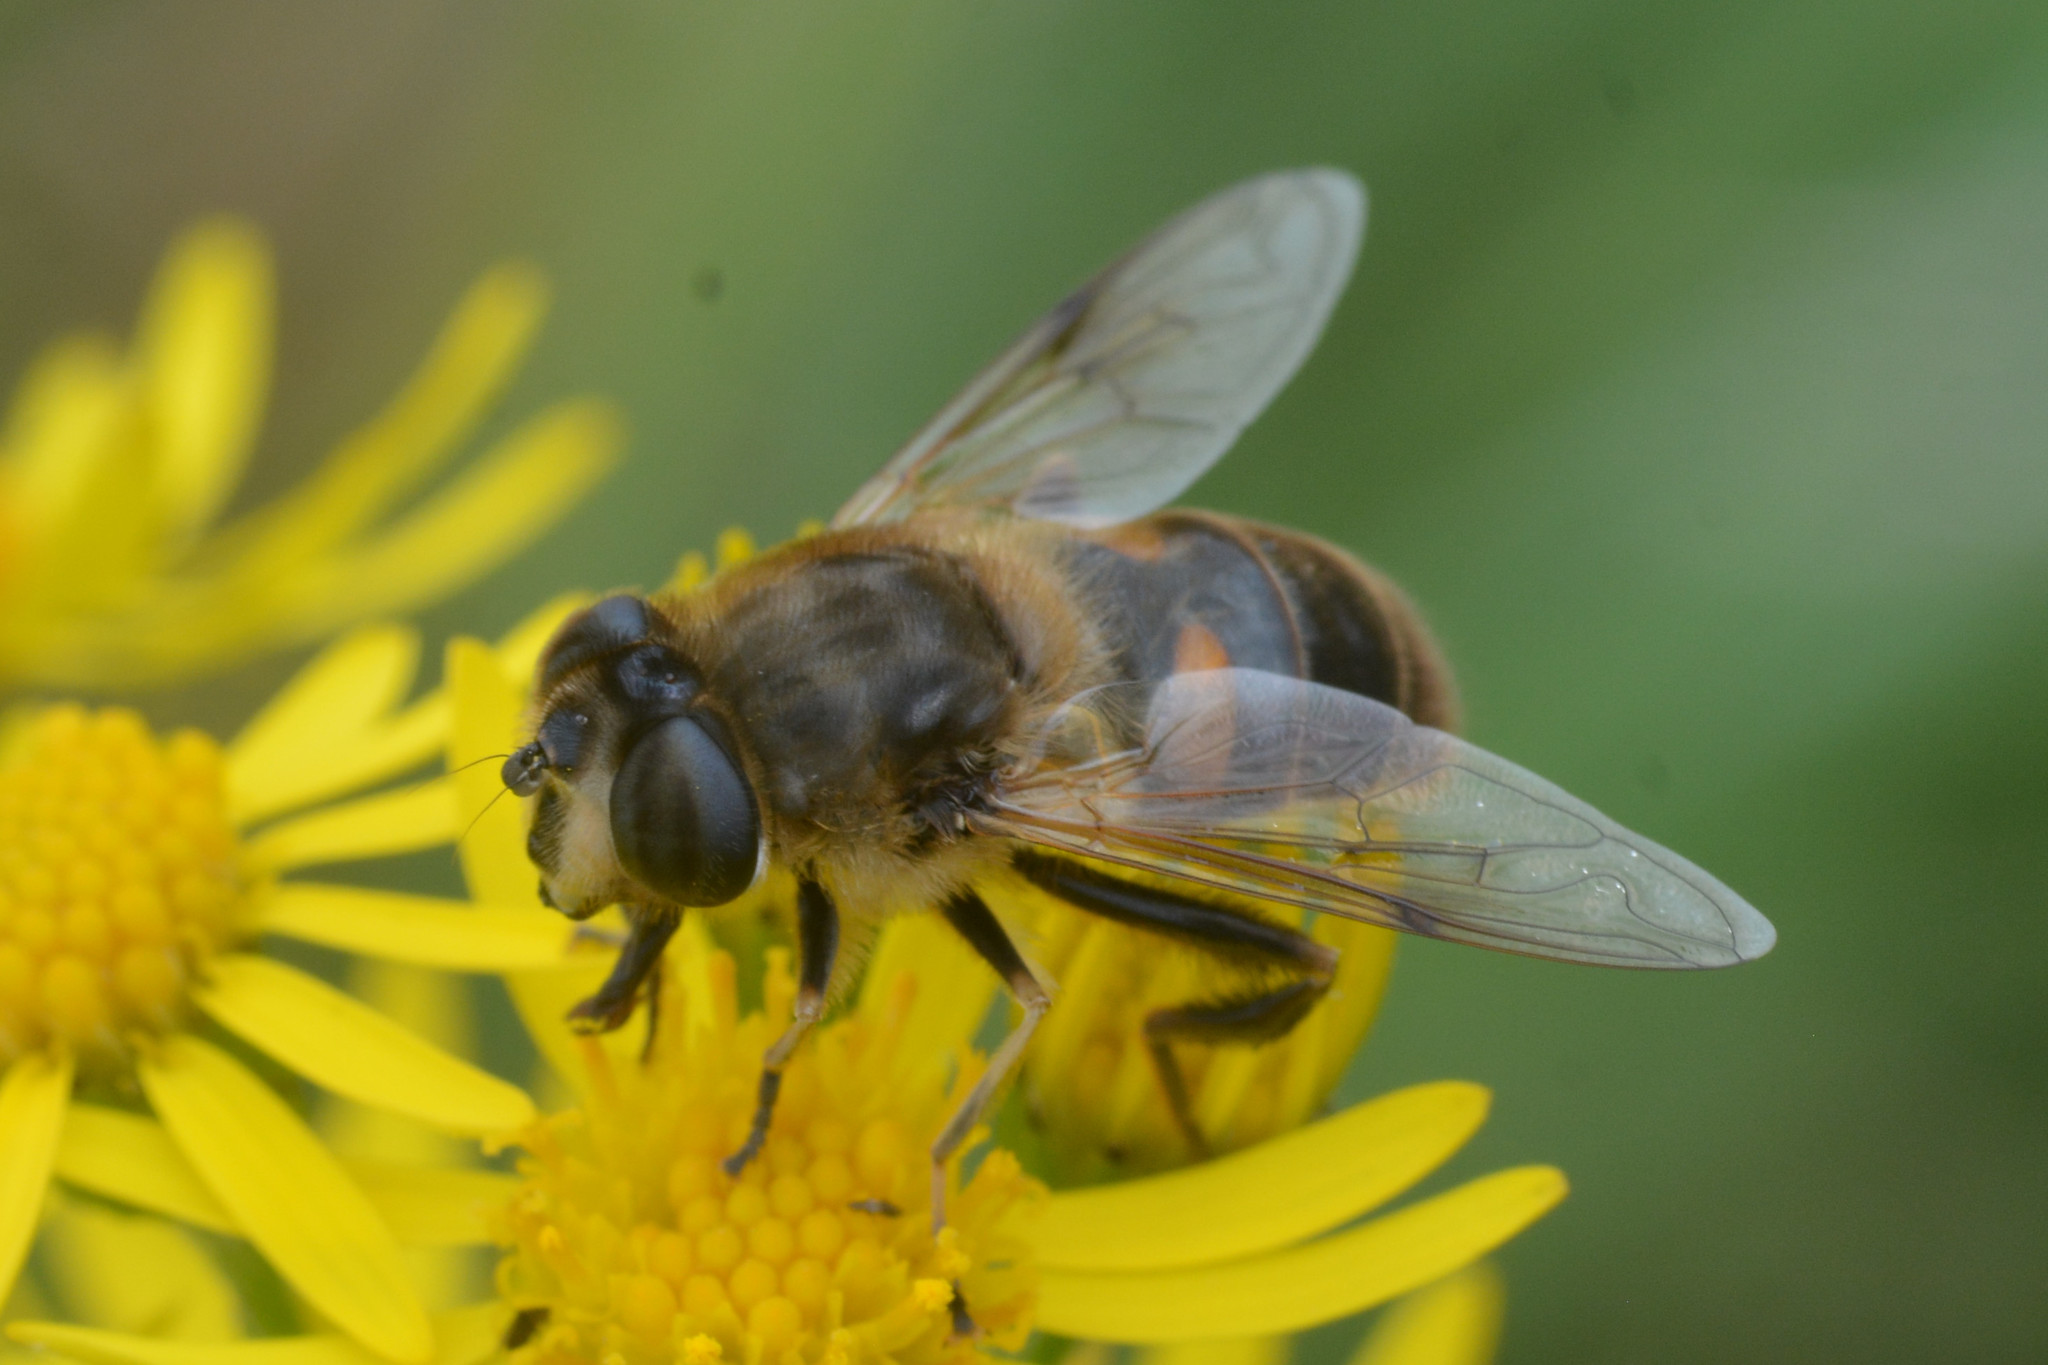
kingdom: Animalia
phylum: Arthropoda
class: Insecta
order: Diptera
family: Syrphidae
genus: Eristalis
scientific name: Eristalis tenax
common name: Drone fly
